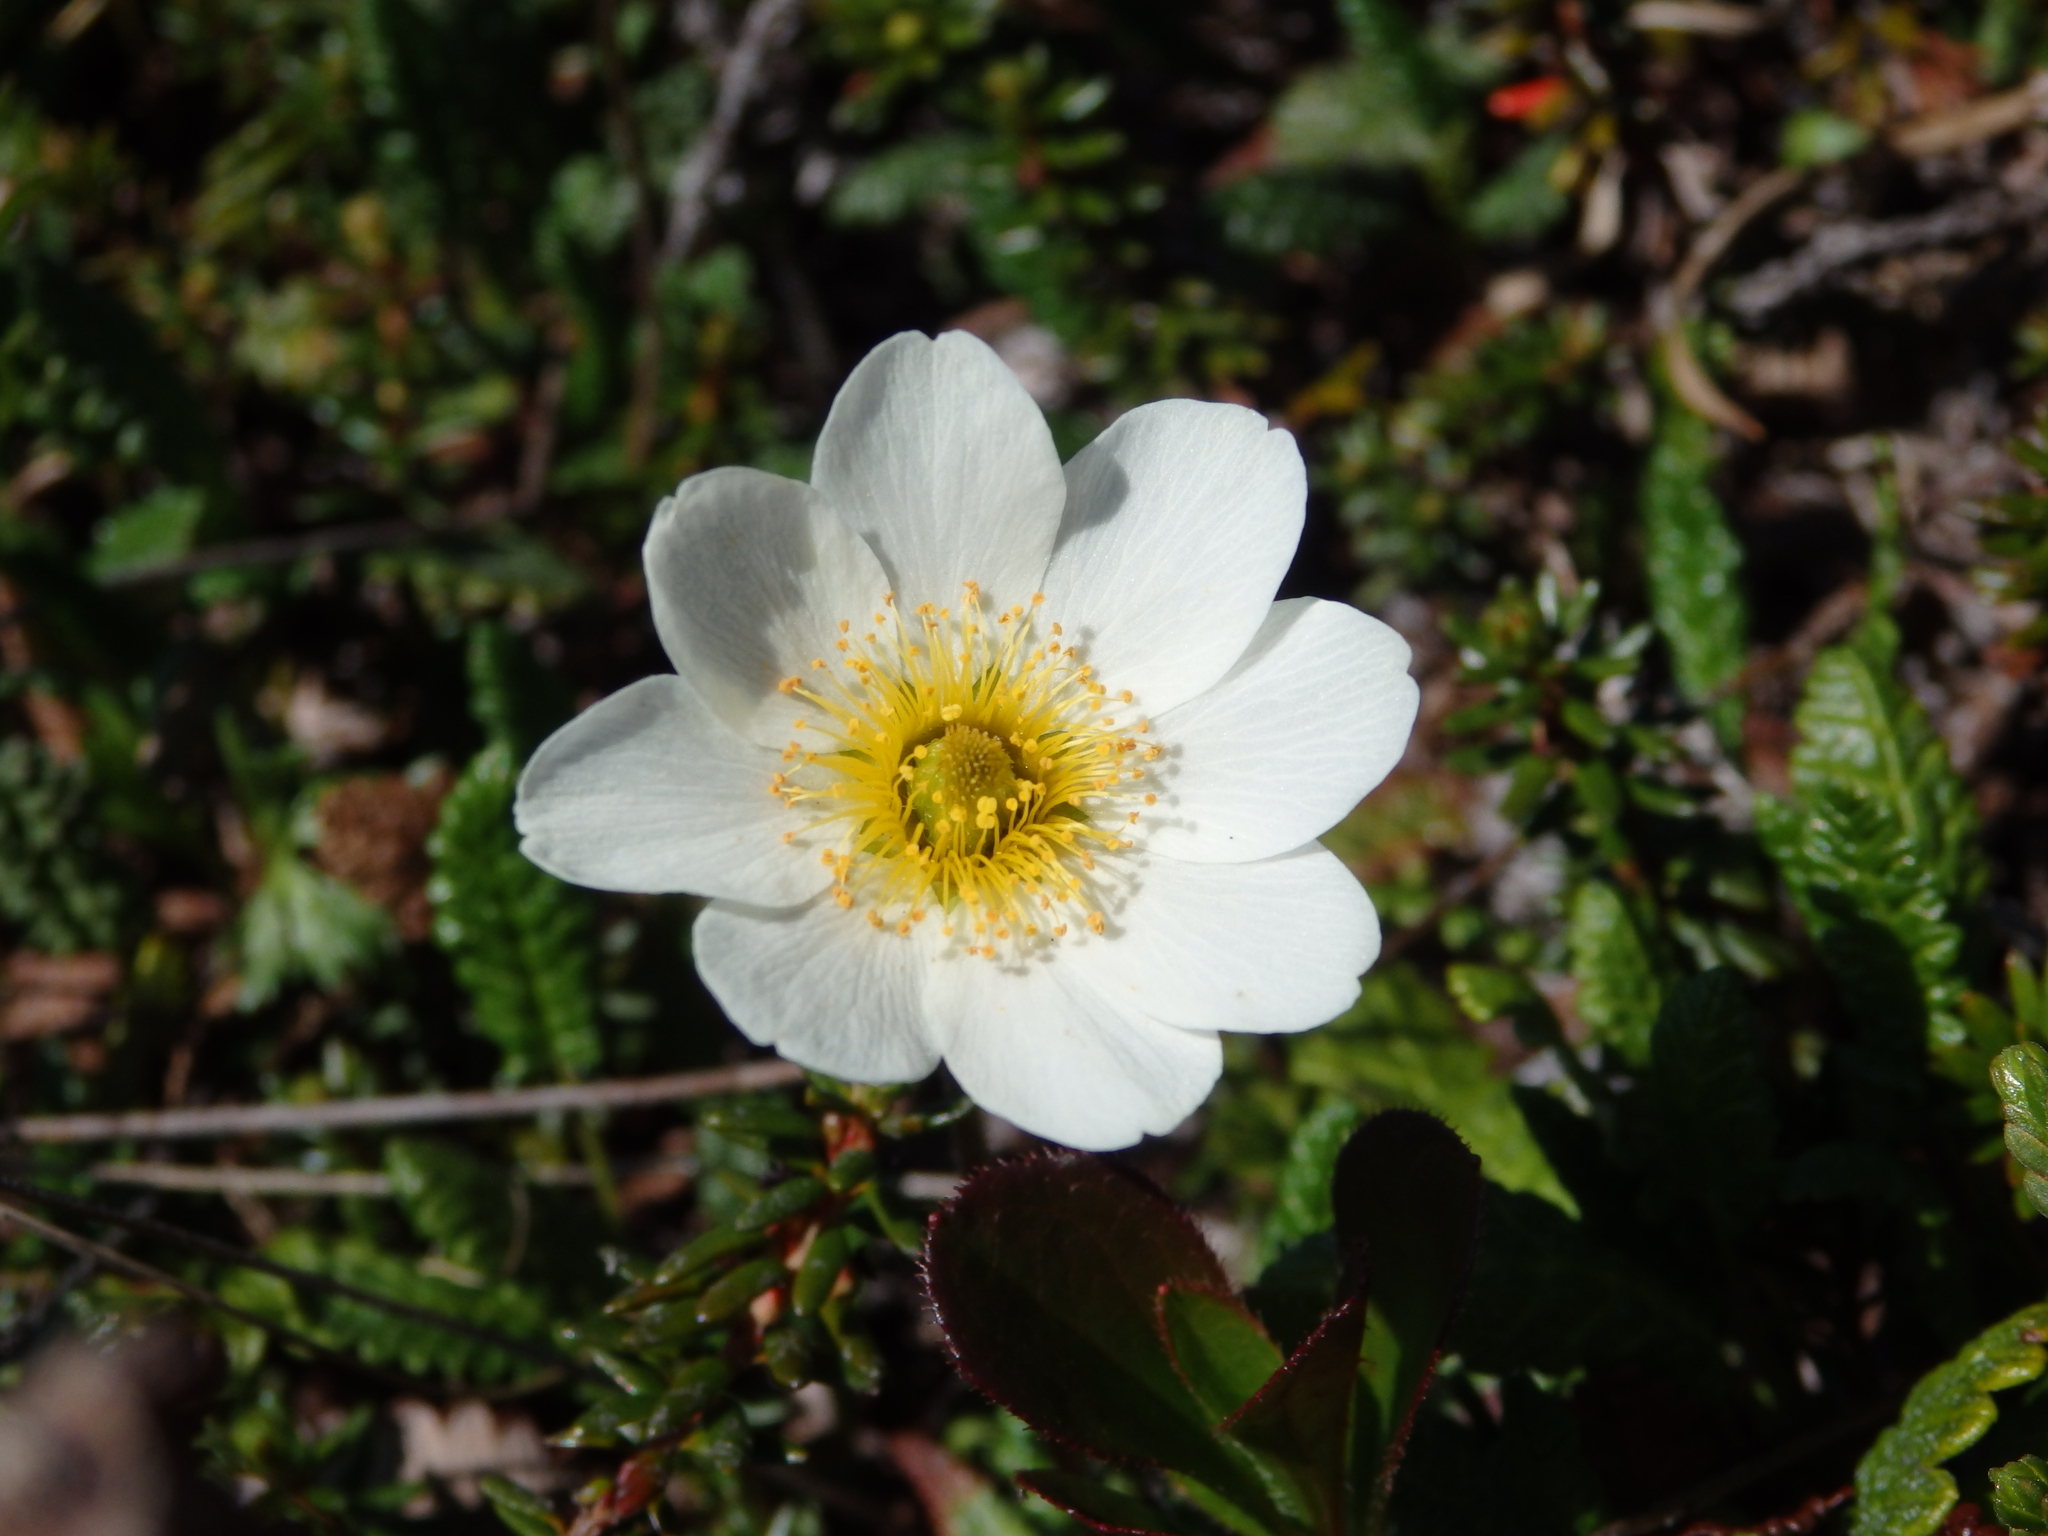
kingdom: Plantae
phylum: Tracheophyta
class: Magnoliopsida
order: Rosales
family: Rosaceae
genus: Dryas
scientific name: Dryas octopetala
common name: Eight-petal mountain-avens
